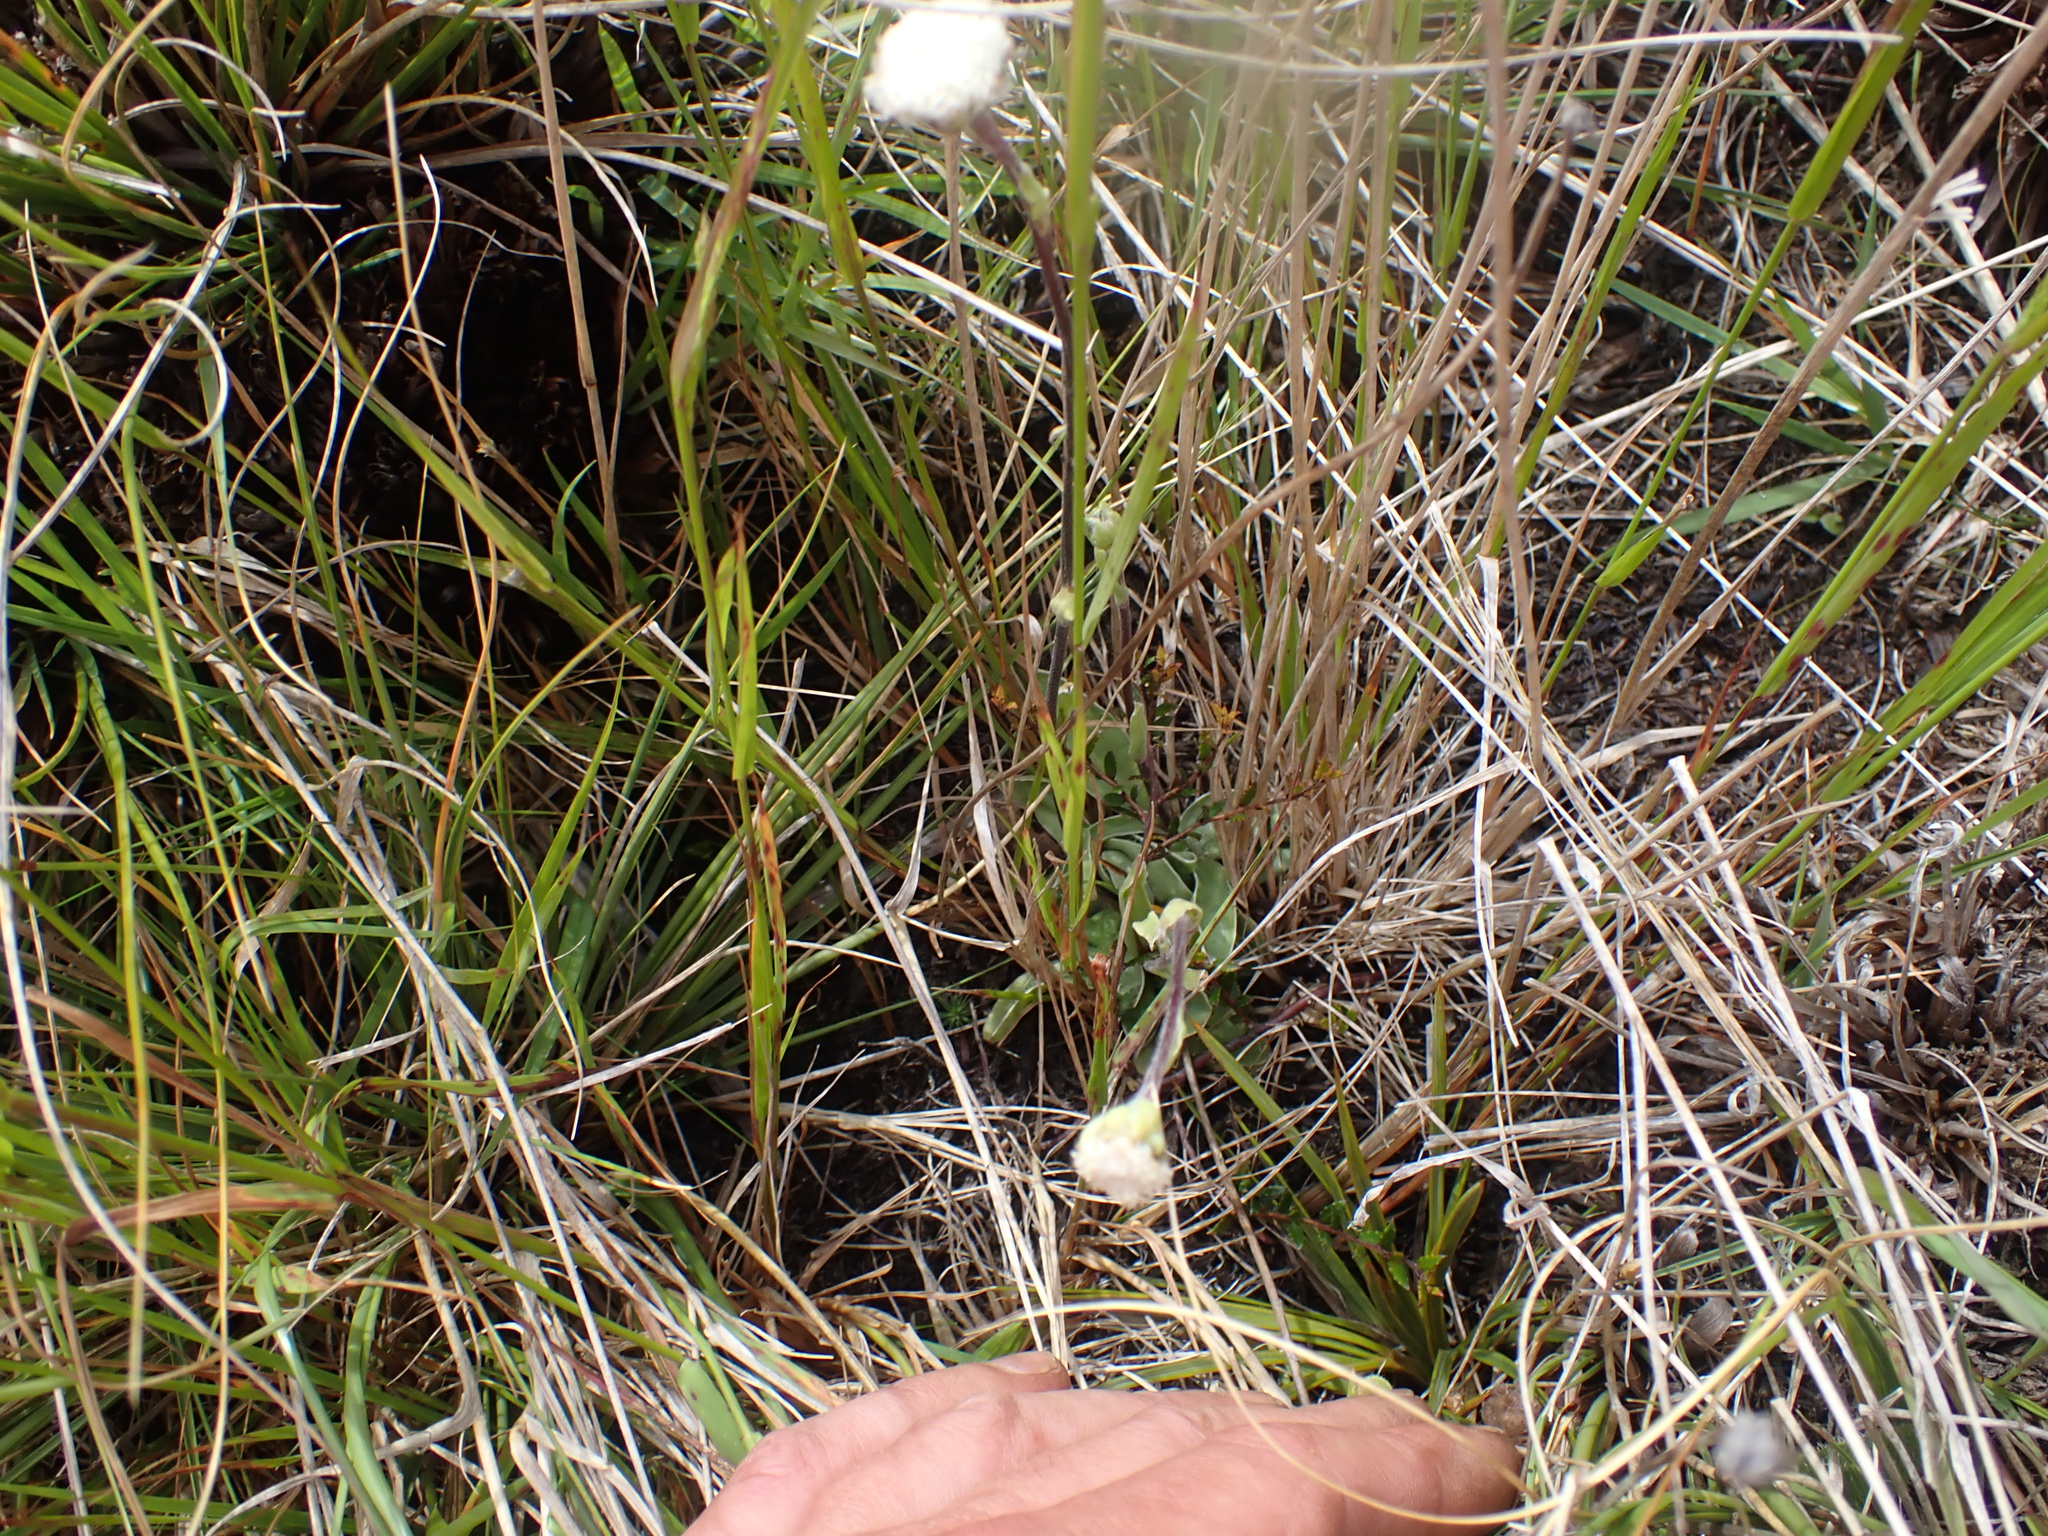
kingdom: Plantae
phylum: Tracheophyta
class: Magnoliopsida
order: Asterales
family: Asteraceae
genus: Craspedia
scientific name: Craspedia uniflora
